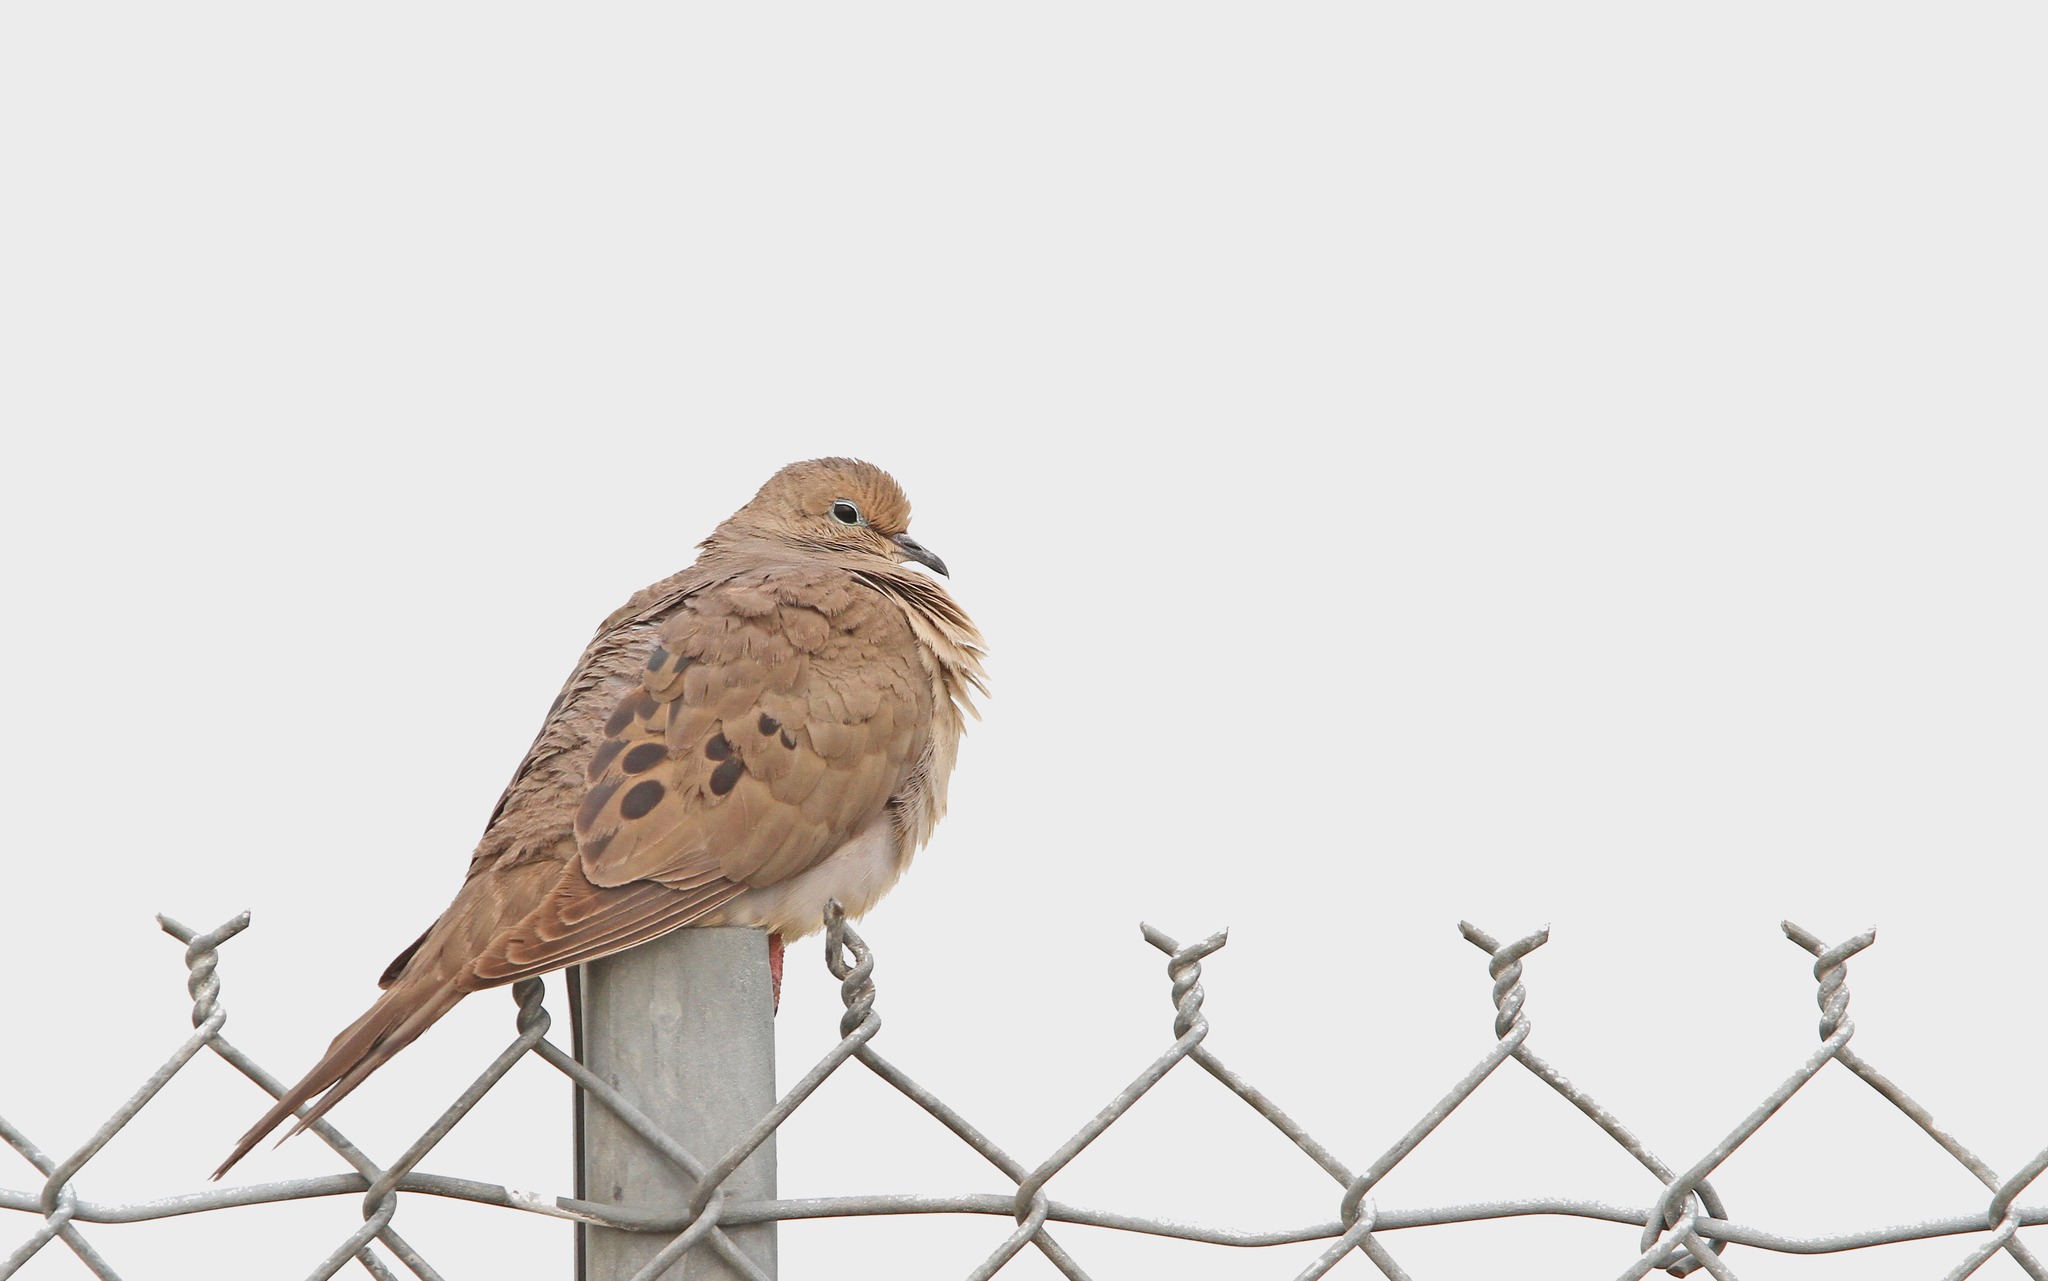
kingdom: Animalia
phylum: Chordata
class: Aves
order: Columbiformes
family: Columbidae
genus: Zenaida
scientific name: Zenaida macroura
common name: Mourning dove
